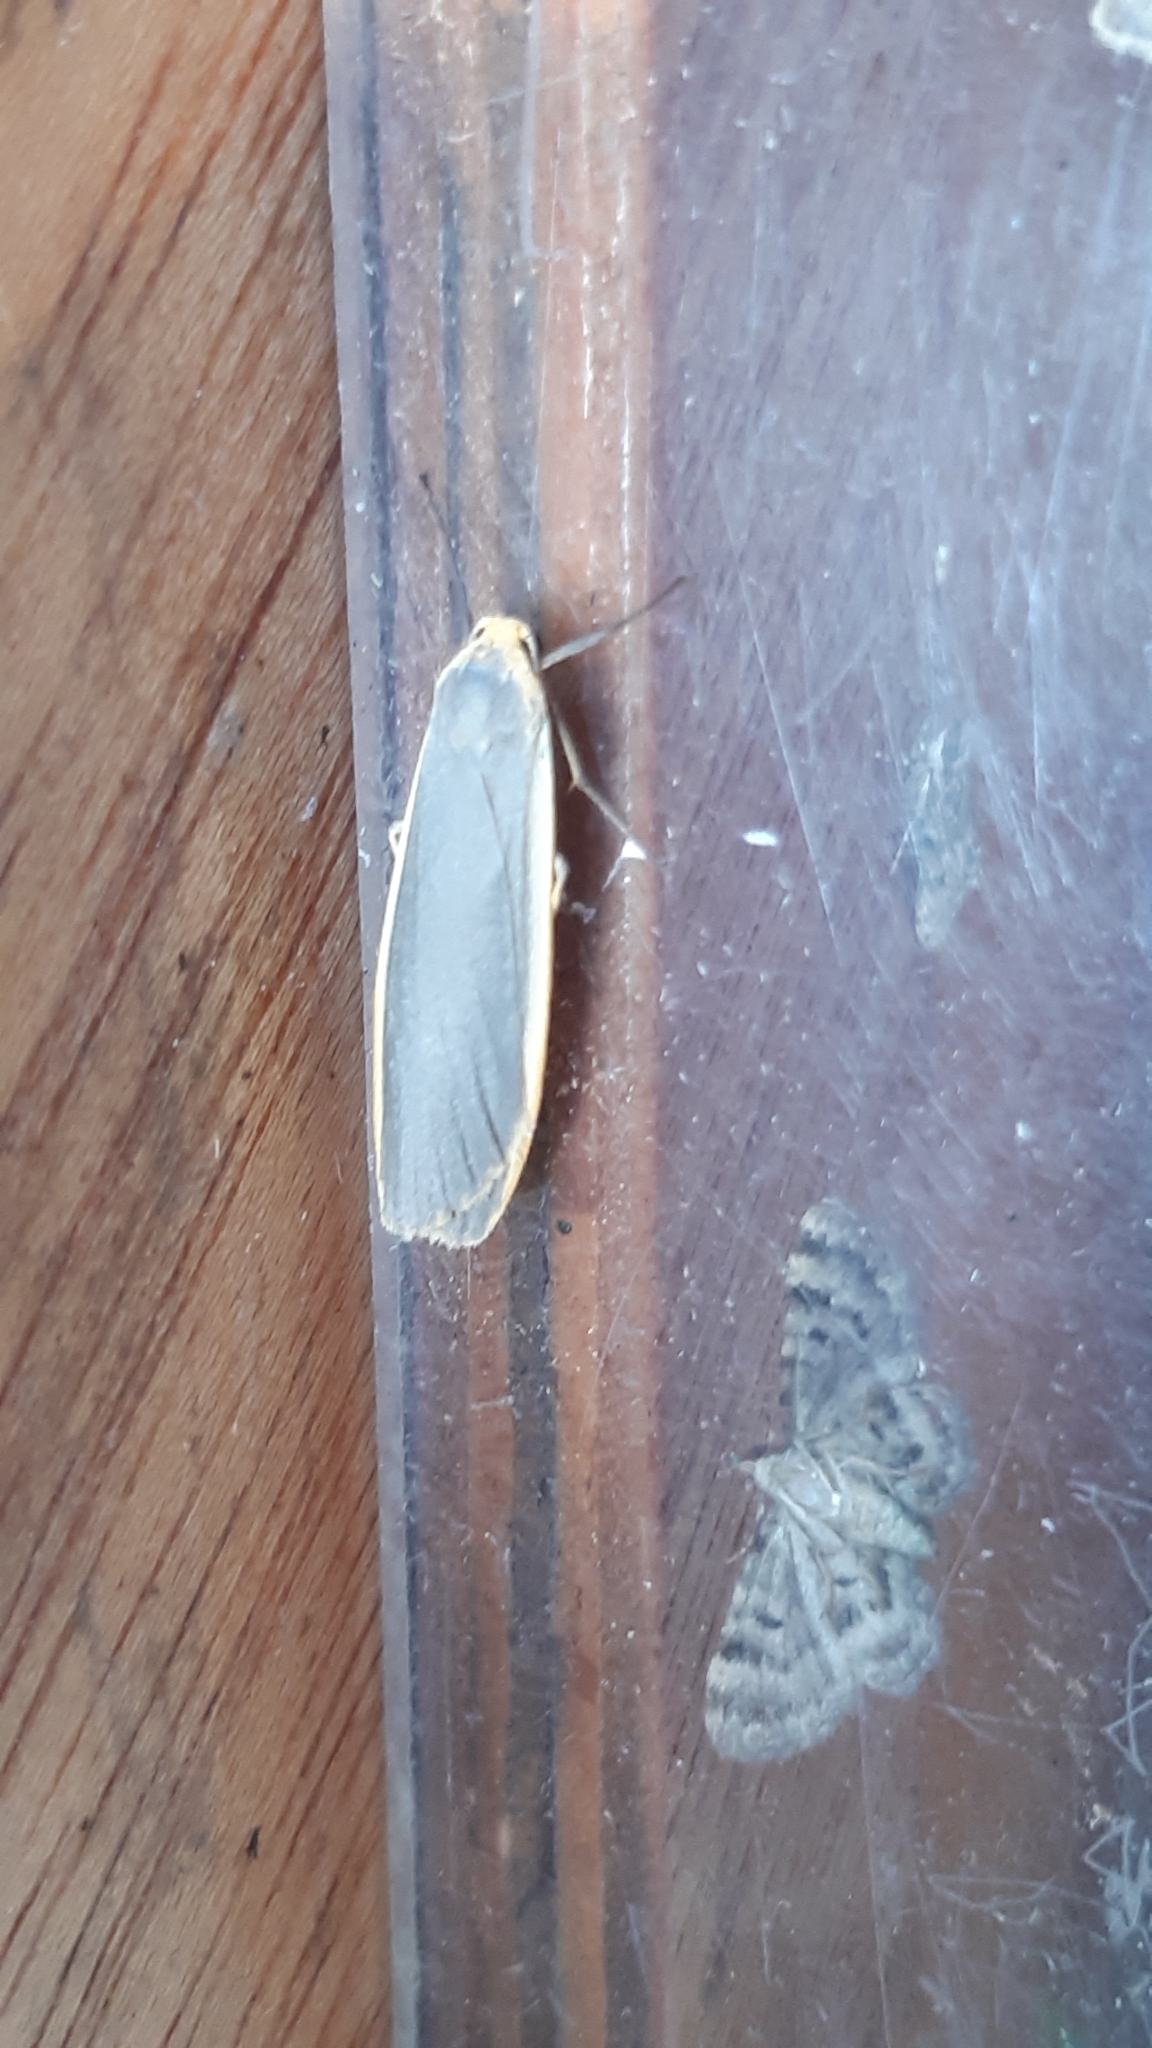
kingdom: Animalia
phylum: Arthropoda
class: Insecta
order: Lepidoptera
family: Erebidae
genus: Nyea
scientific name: Nyea lurideola
